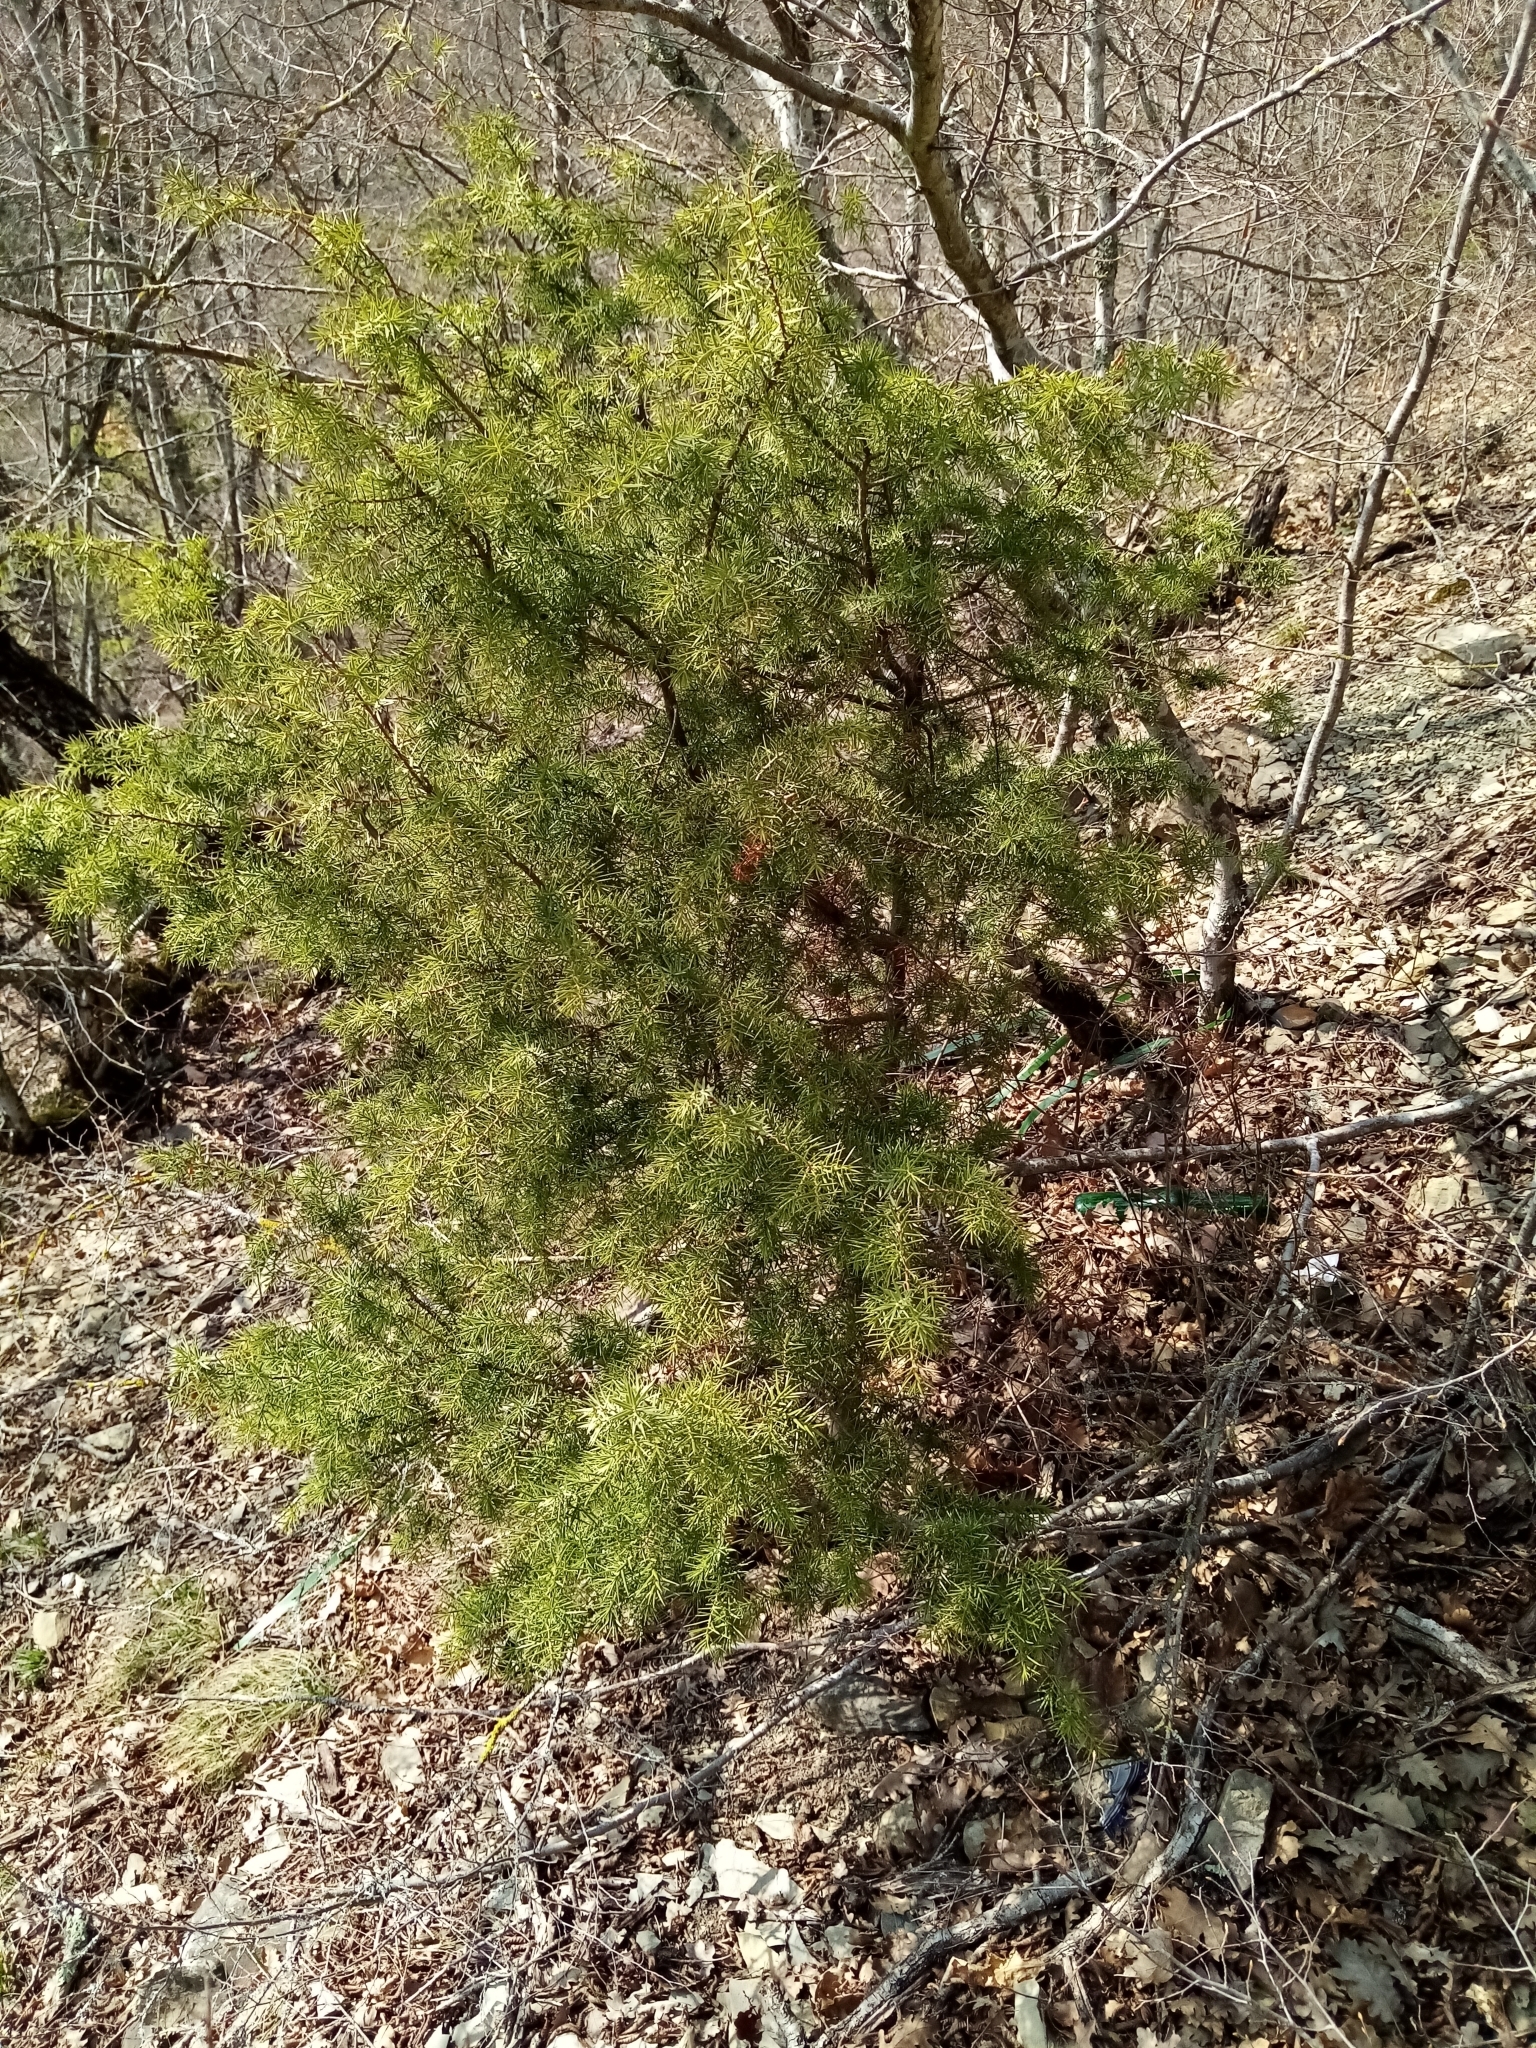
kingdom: Plantae
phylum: Tracheophyta
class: Pinopsida
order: Pinales
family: Cupressaceae
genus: Juniperus
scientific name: Juniperus oxycedrus
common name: Prickly juniper
